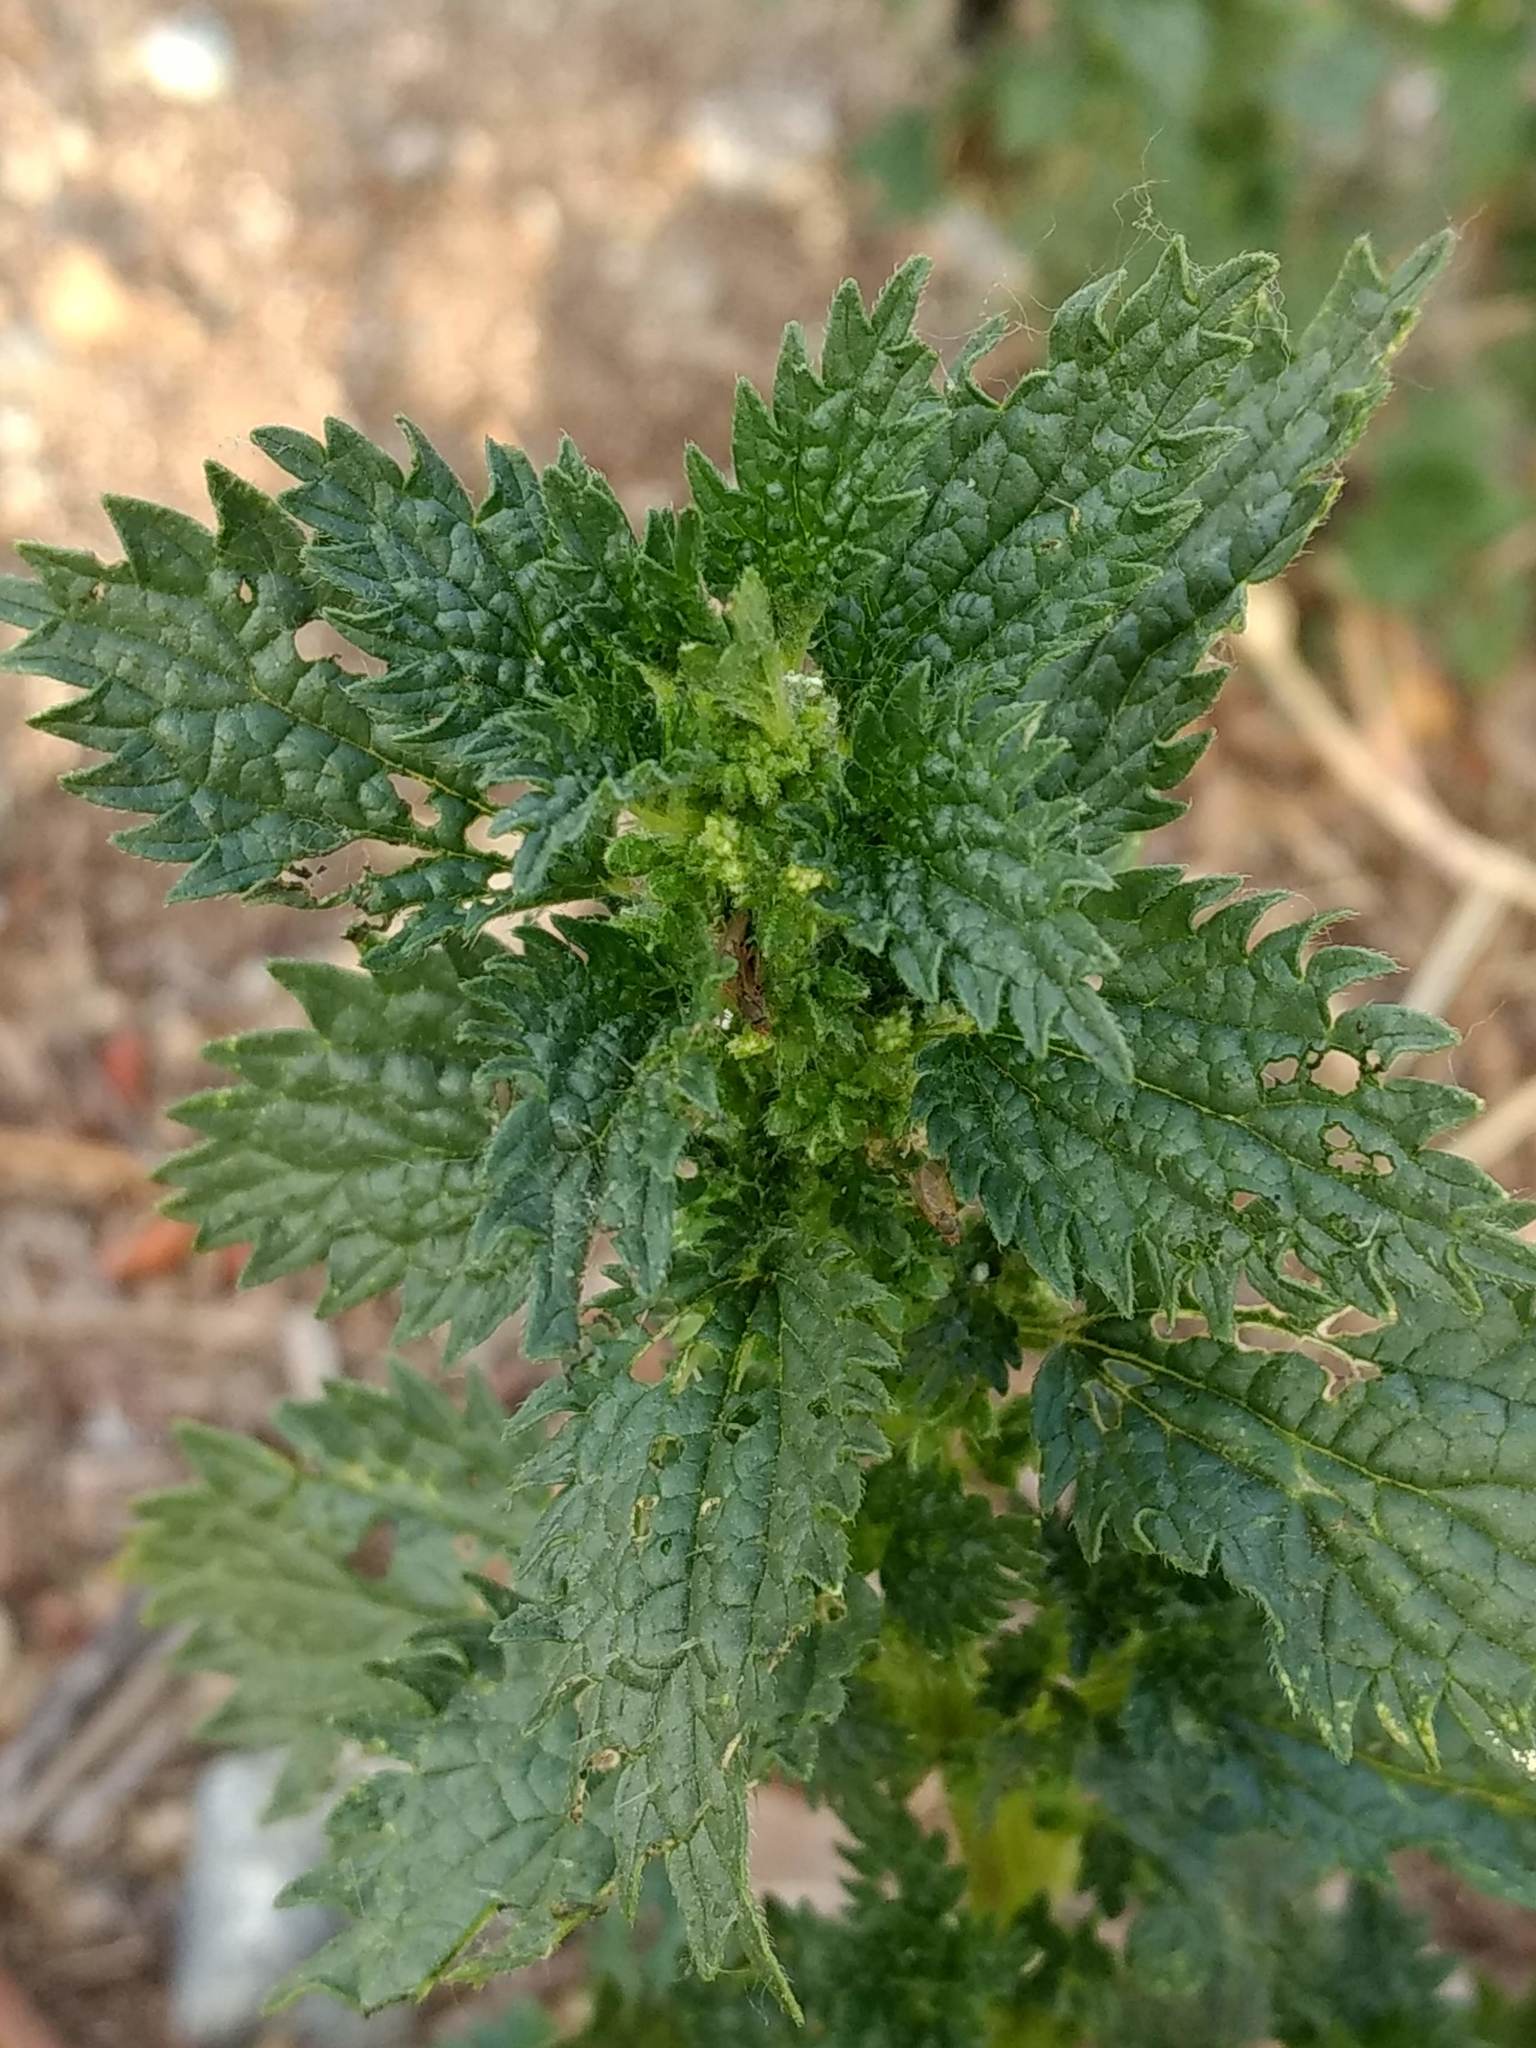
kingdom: Plantae
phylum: Tracheophyta
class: Magnoliopsida
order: Rosales
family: Urticaceae
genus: Urtica
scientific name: Urtica urens
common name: Dwarf nettle
